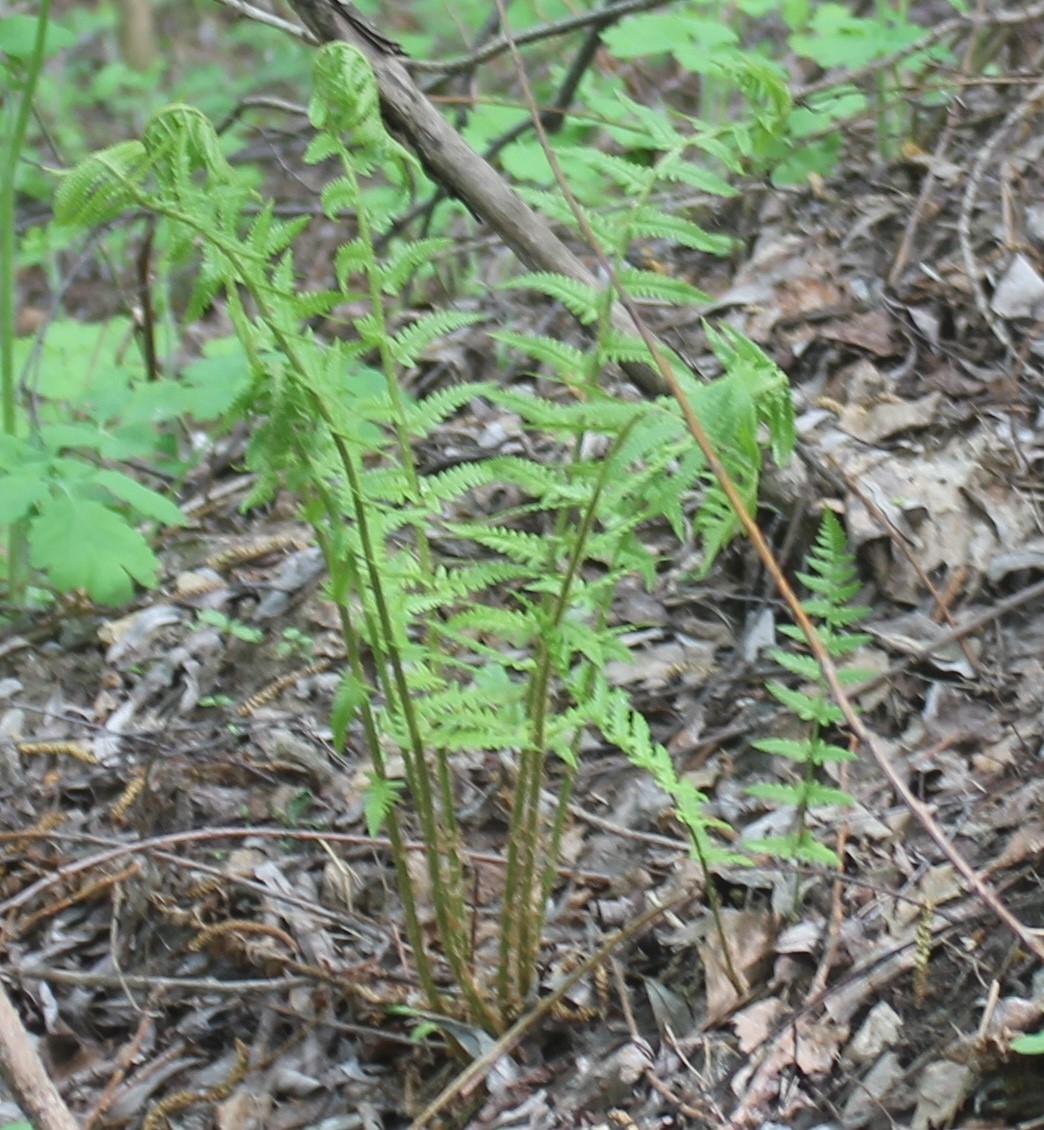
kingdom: Plantae
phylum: Tracheophyta
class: Polypodiopsida
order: Polypodiales
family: Dryopteridaceae
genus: Dryopteris
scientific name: Dryopteris filix-mas
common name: Male fern
